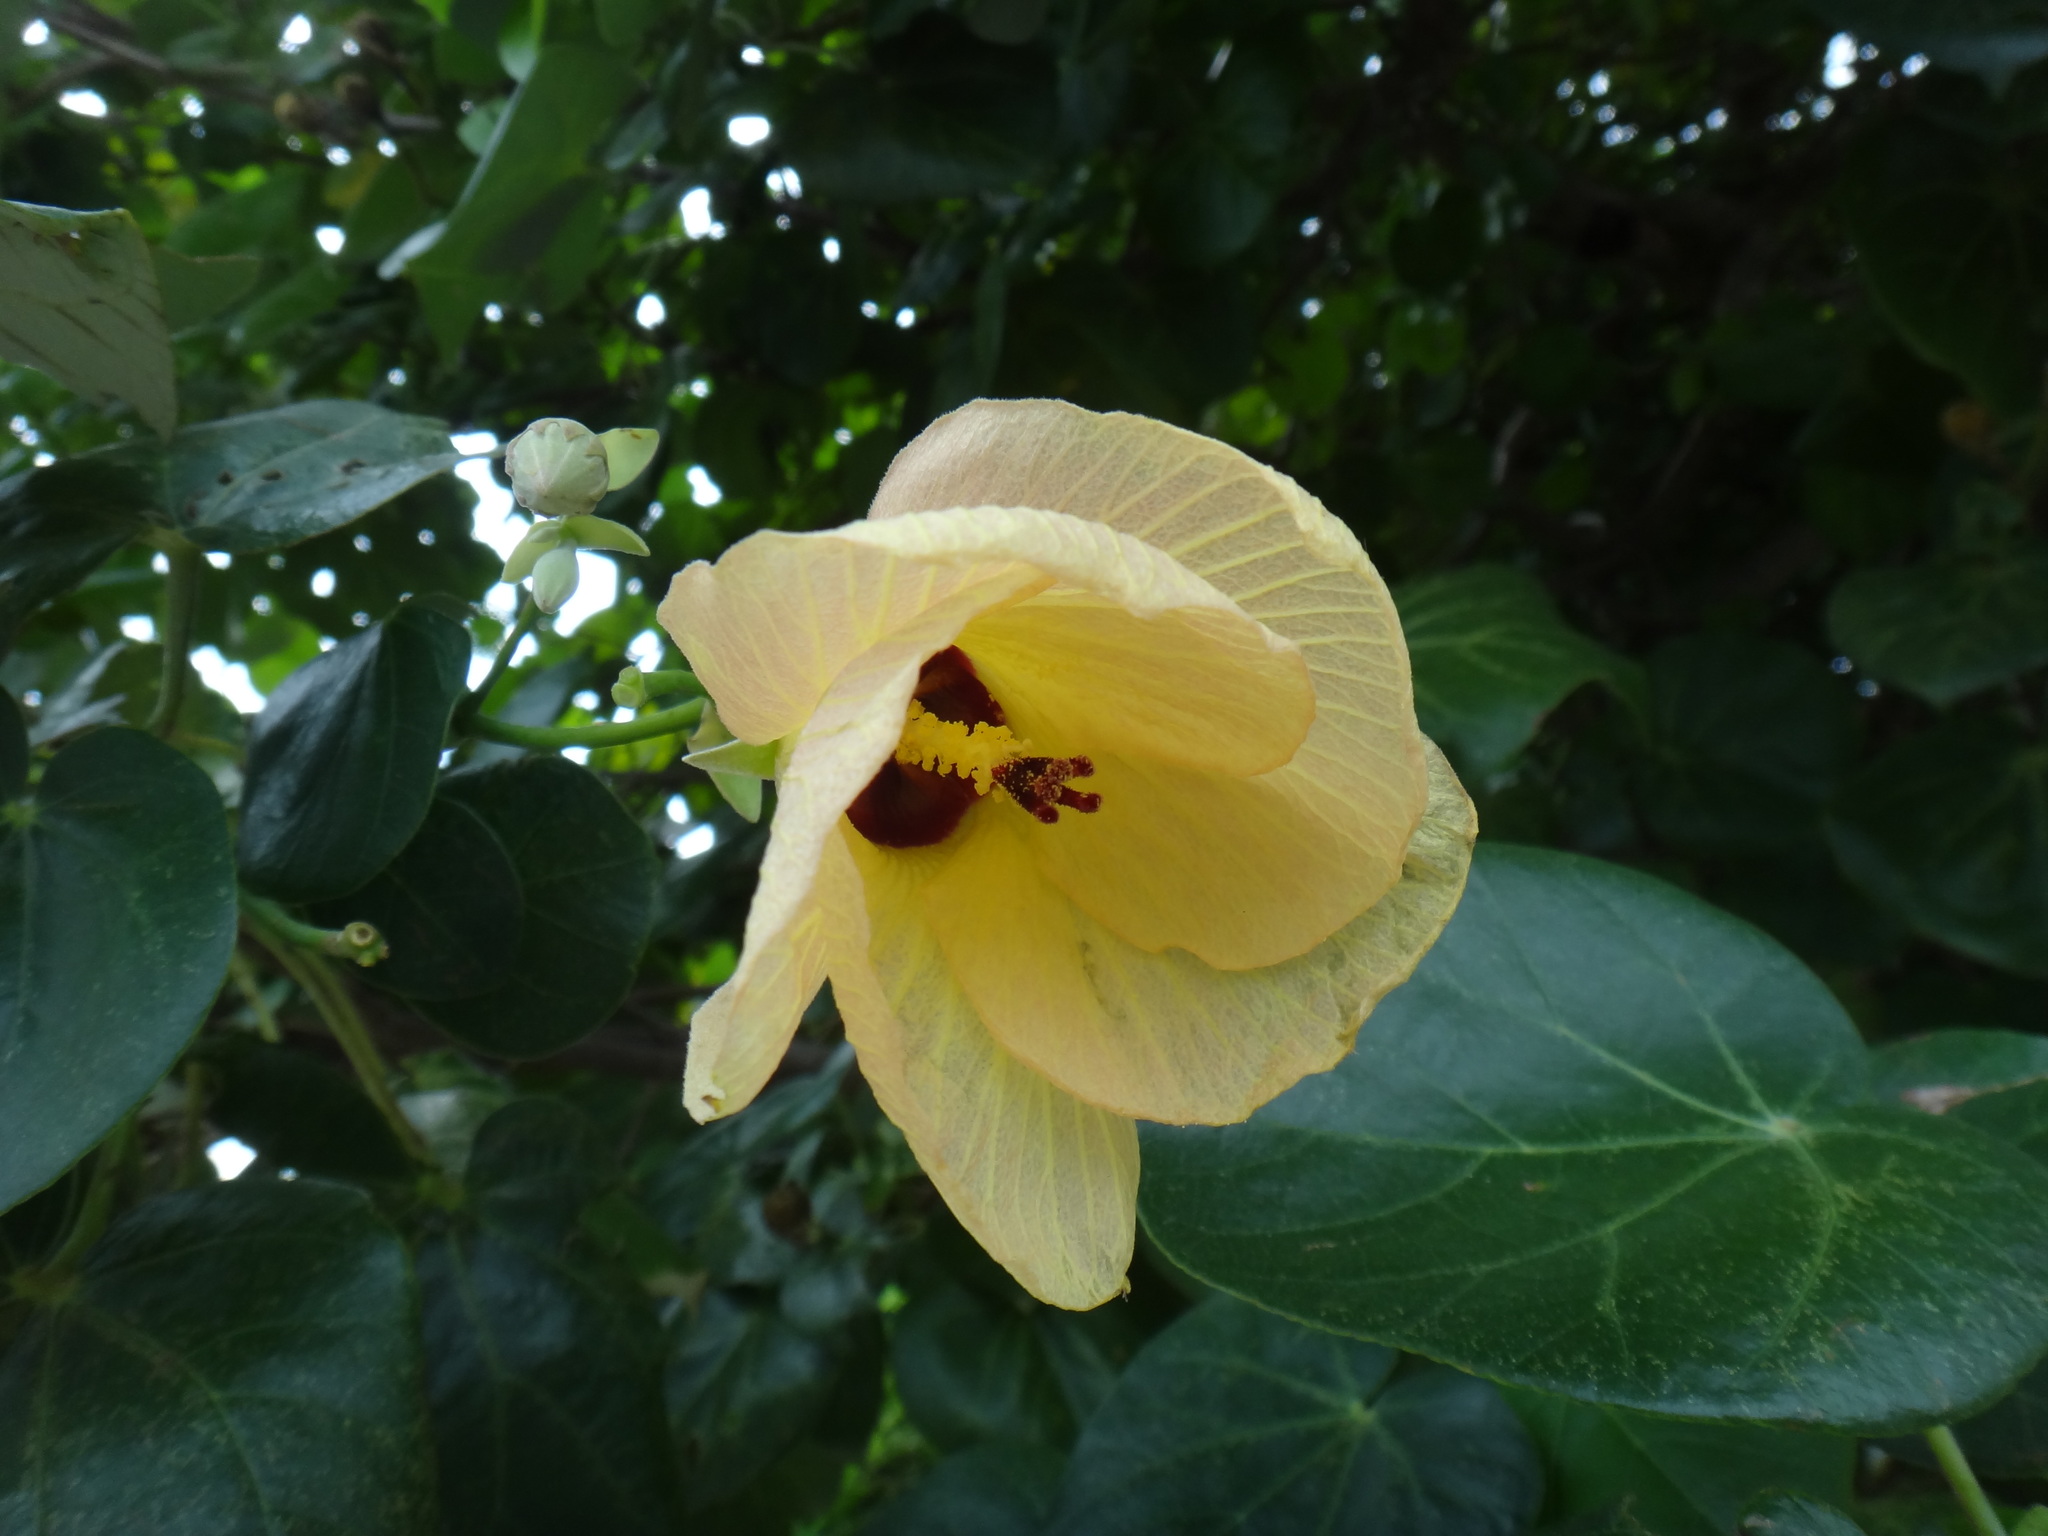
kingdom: Plantae
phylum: Tracheophyta
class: Magnoliopsida
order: Malvales
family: Malvaceae
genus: Talipariti
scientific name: Talipariti tiliaceum
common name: Sea hibiscus
